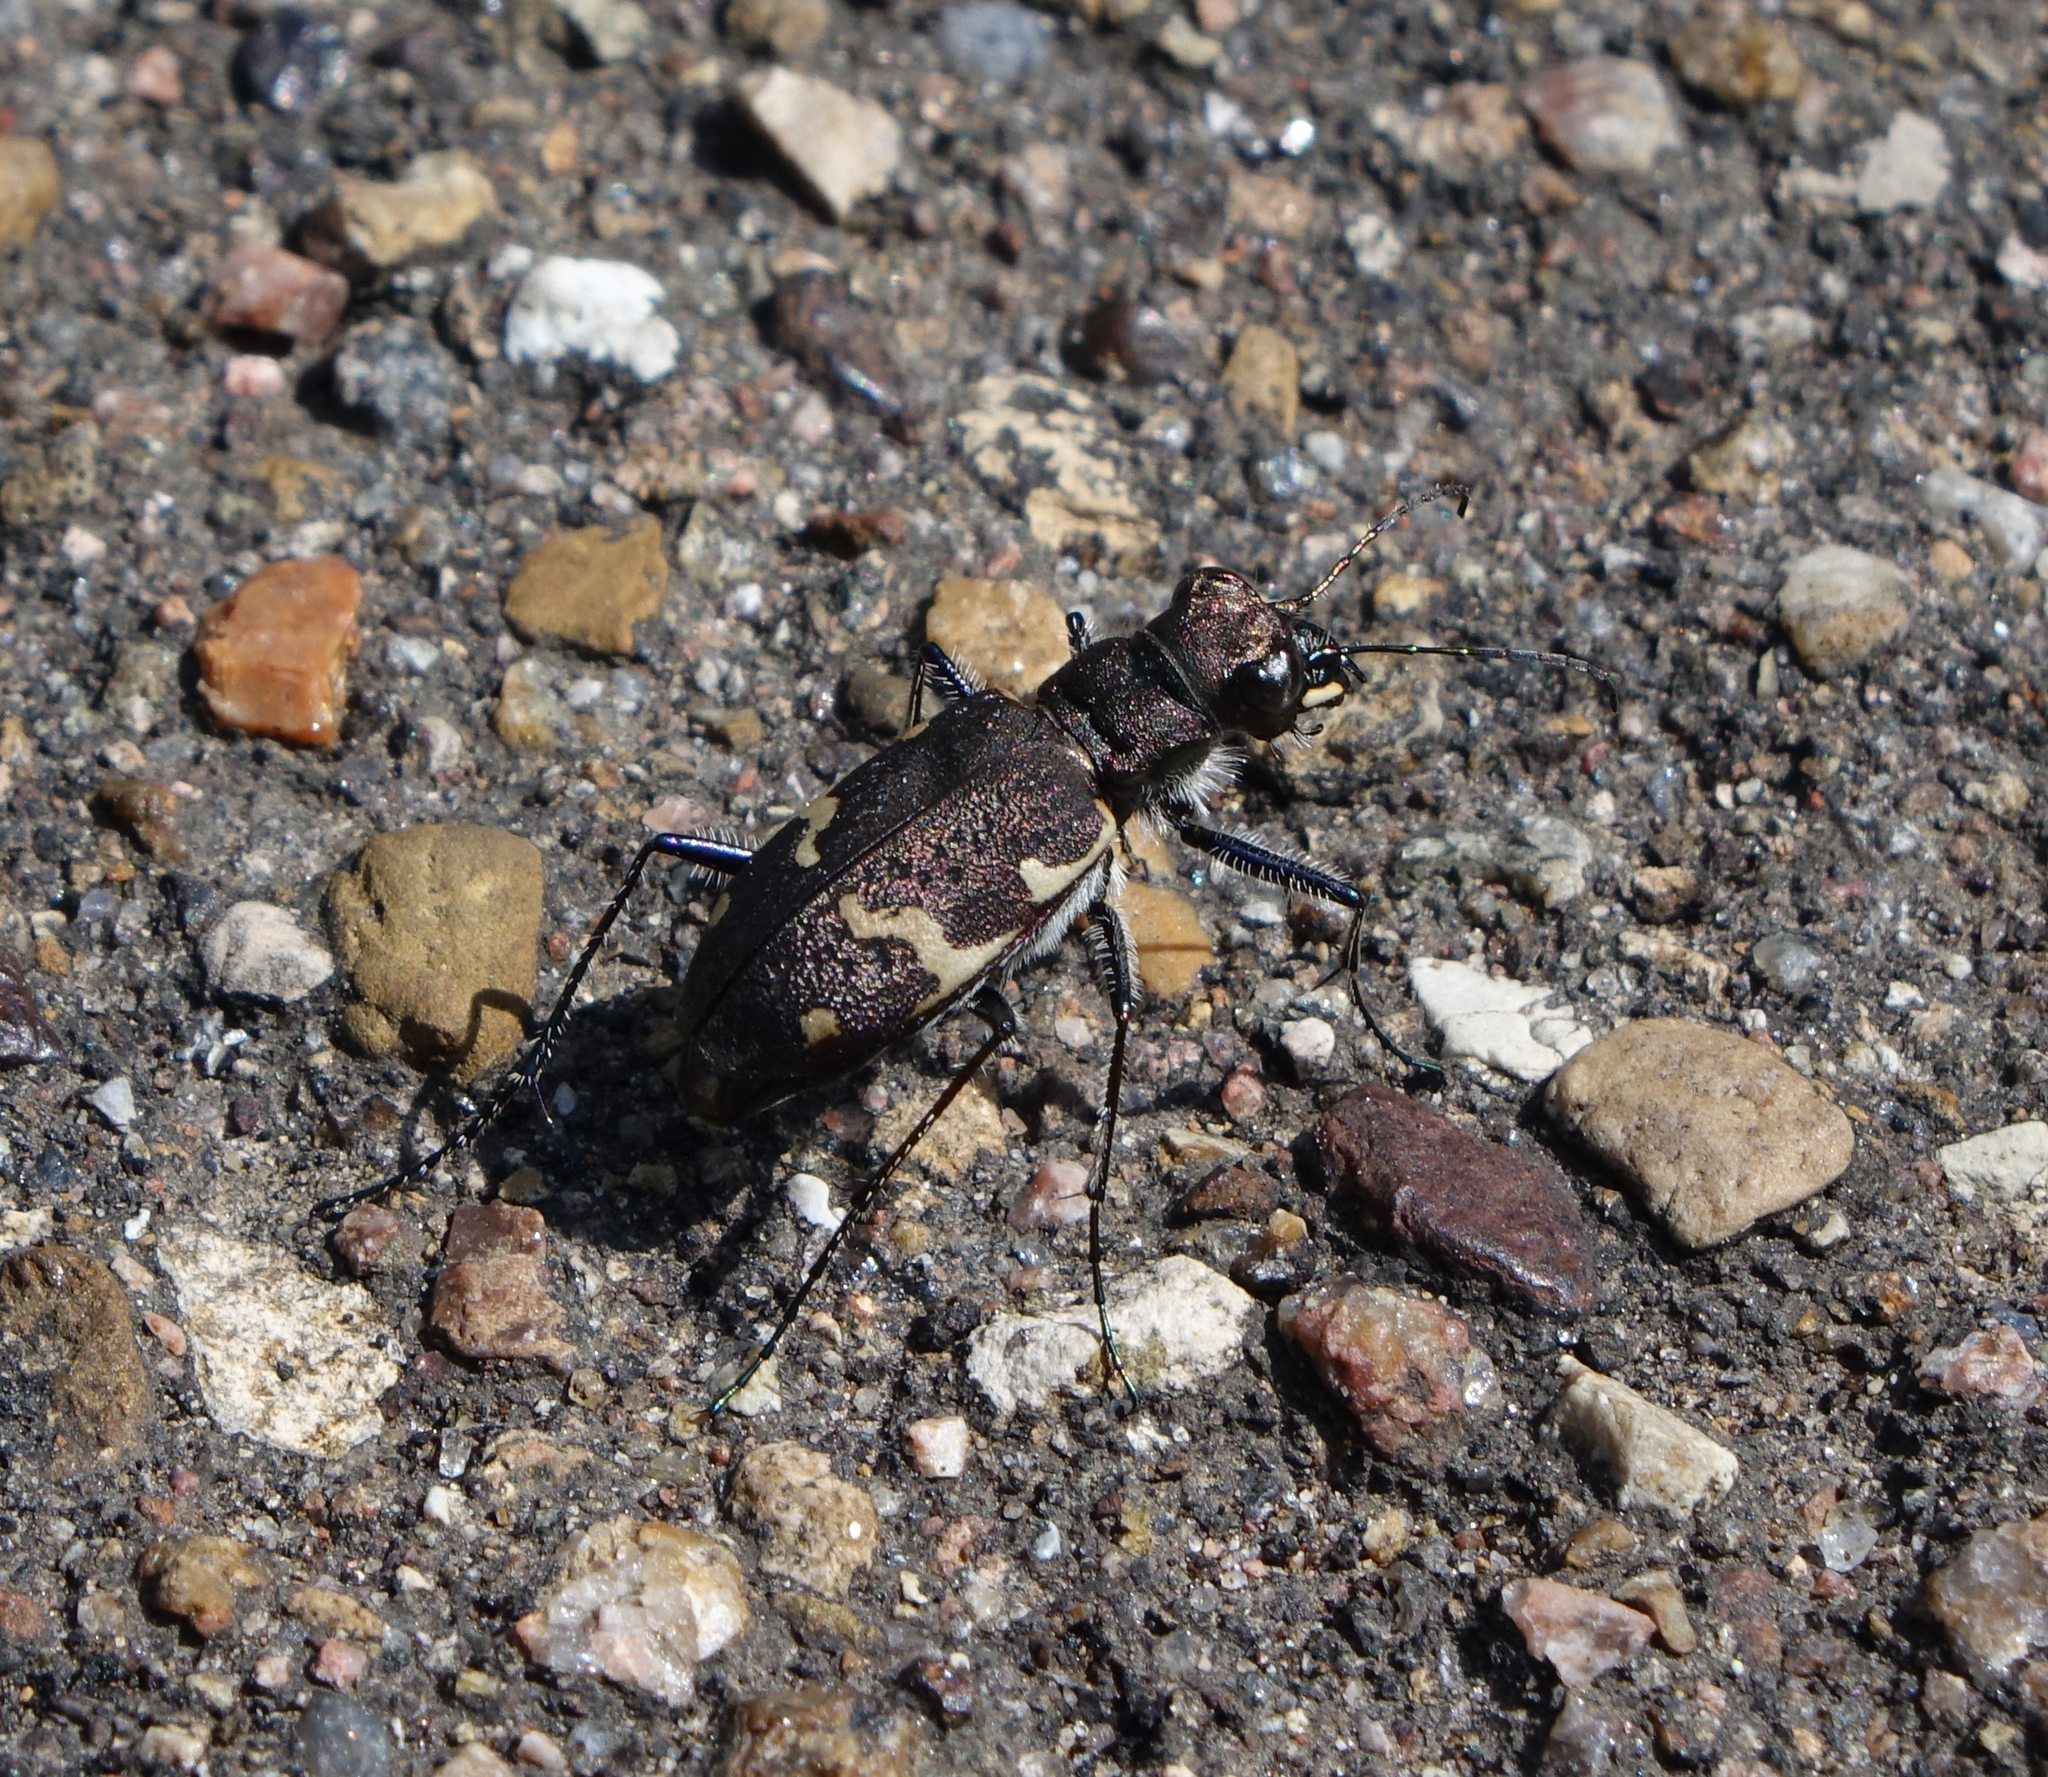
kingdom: Animalia
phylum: Arthropoda
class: Insecta
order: Coleoptera
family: Carabidae
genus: Cicindela
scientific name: Cicindela sylvatica
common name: Heath tiger beetle
